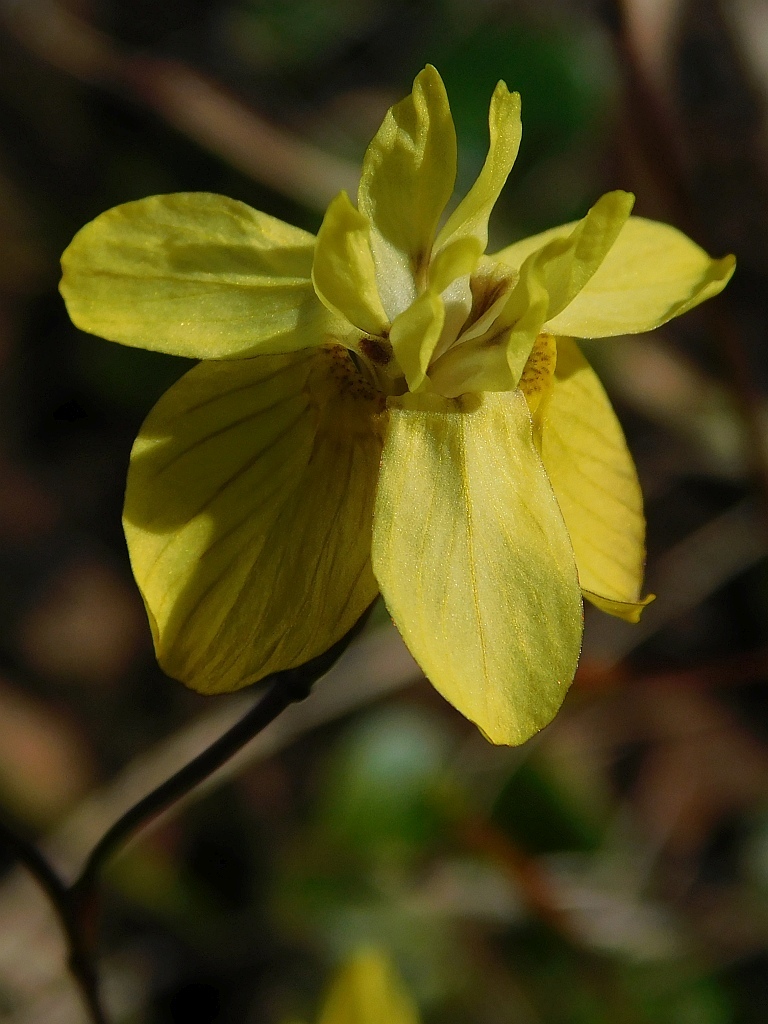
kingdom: Plantae
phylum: Tracheophyta
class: Liliopsida
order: Asparagales
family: Iridaceae
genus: Moraea
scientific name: Moraea gawleri
